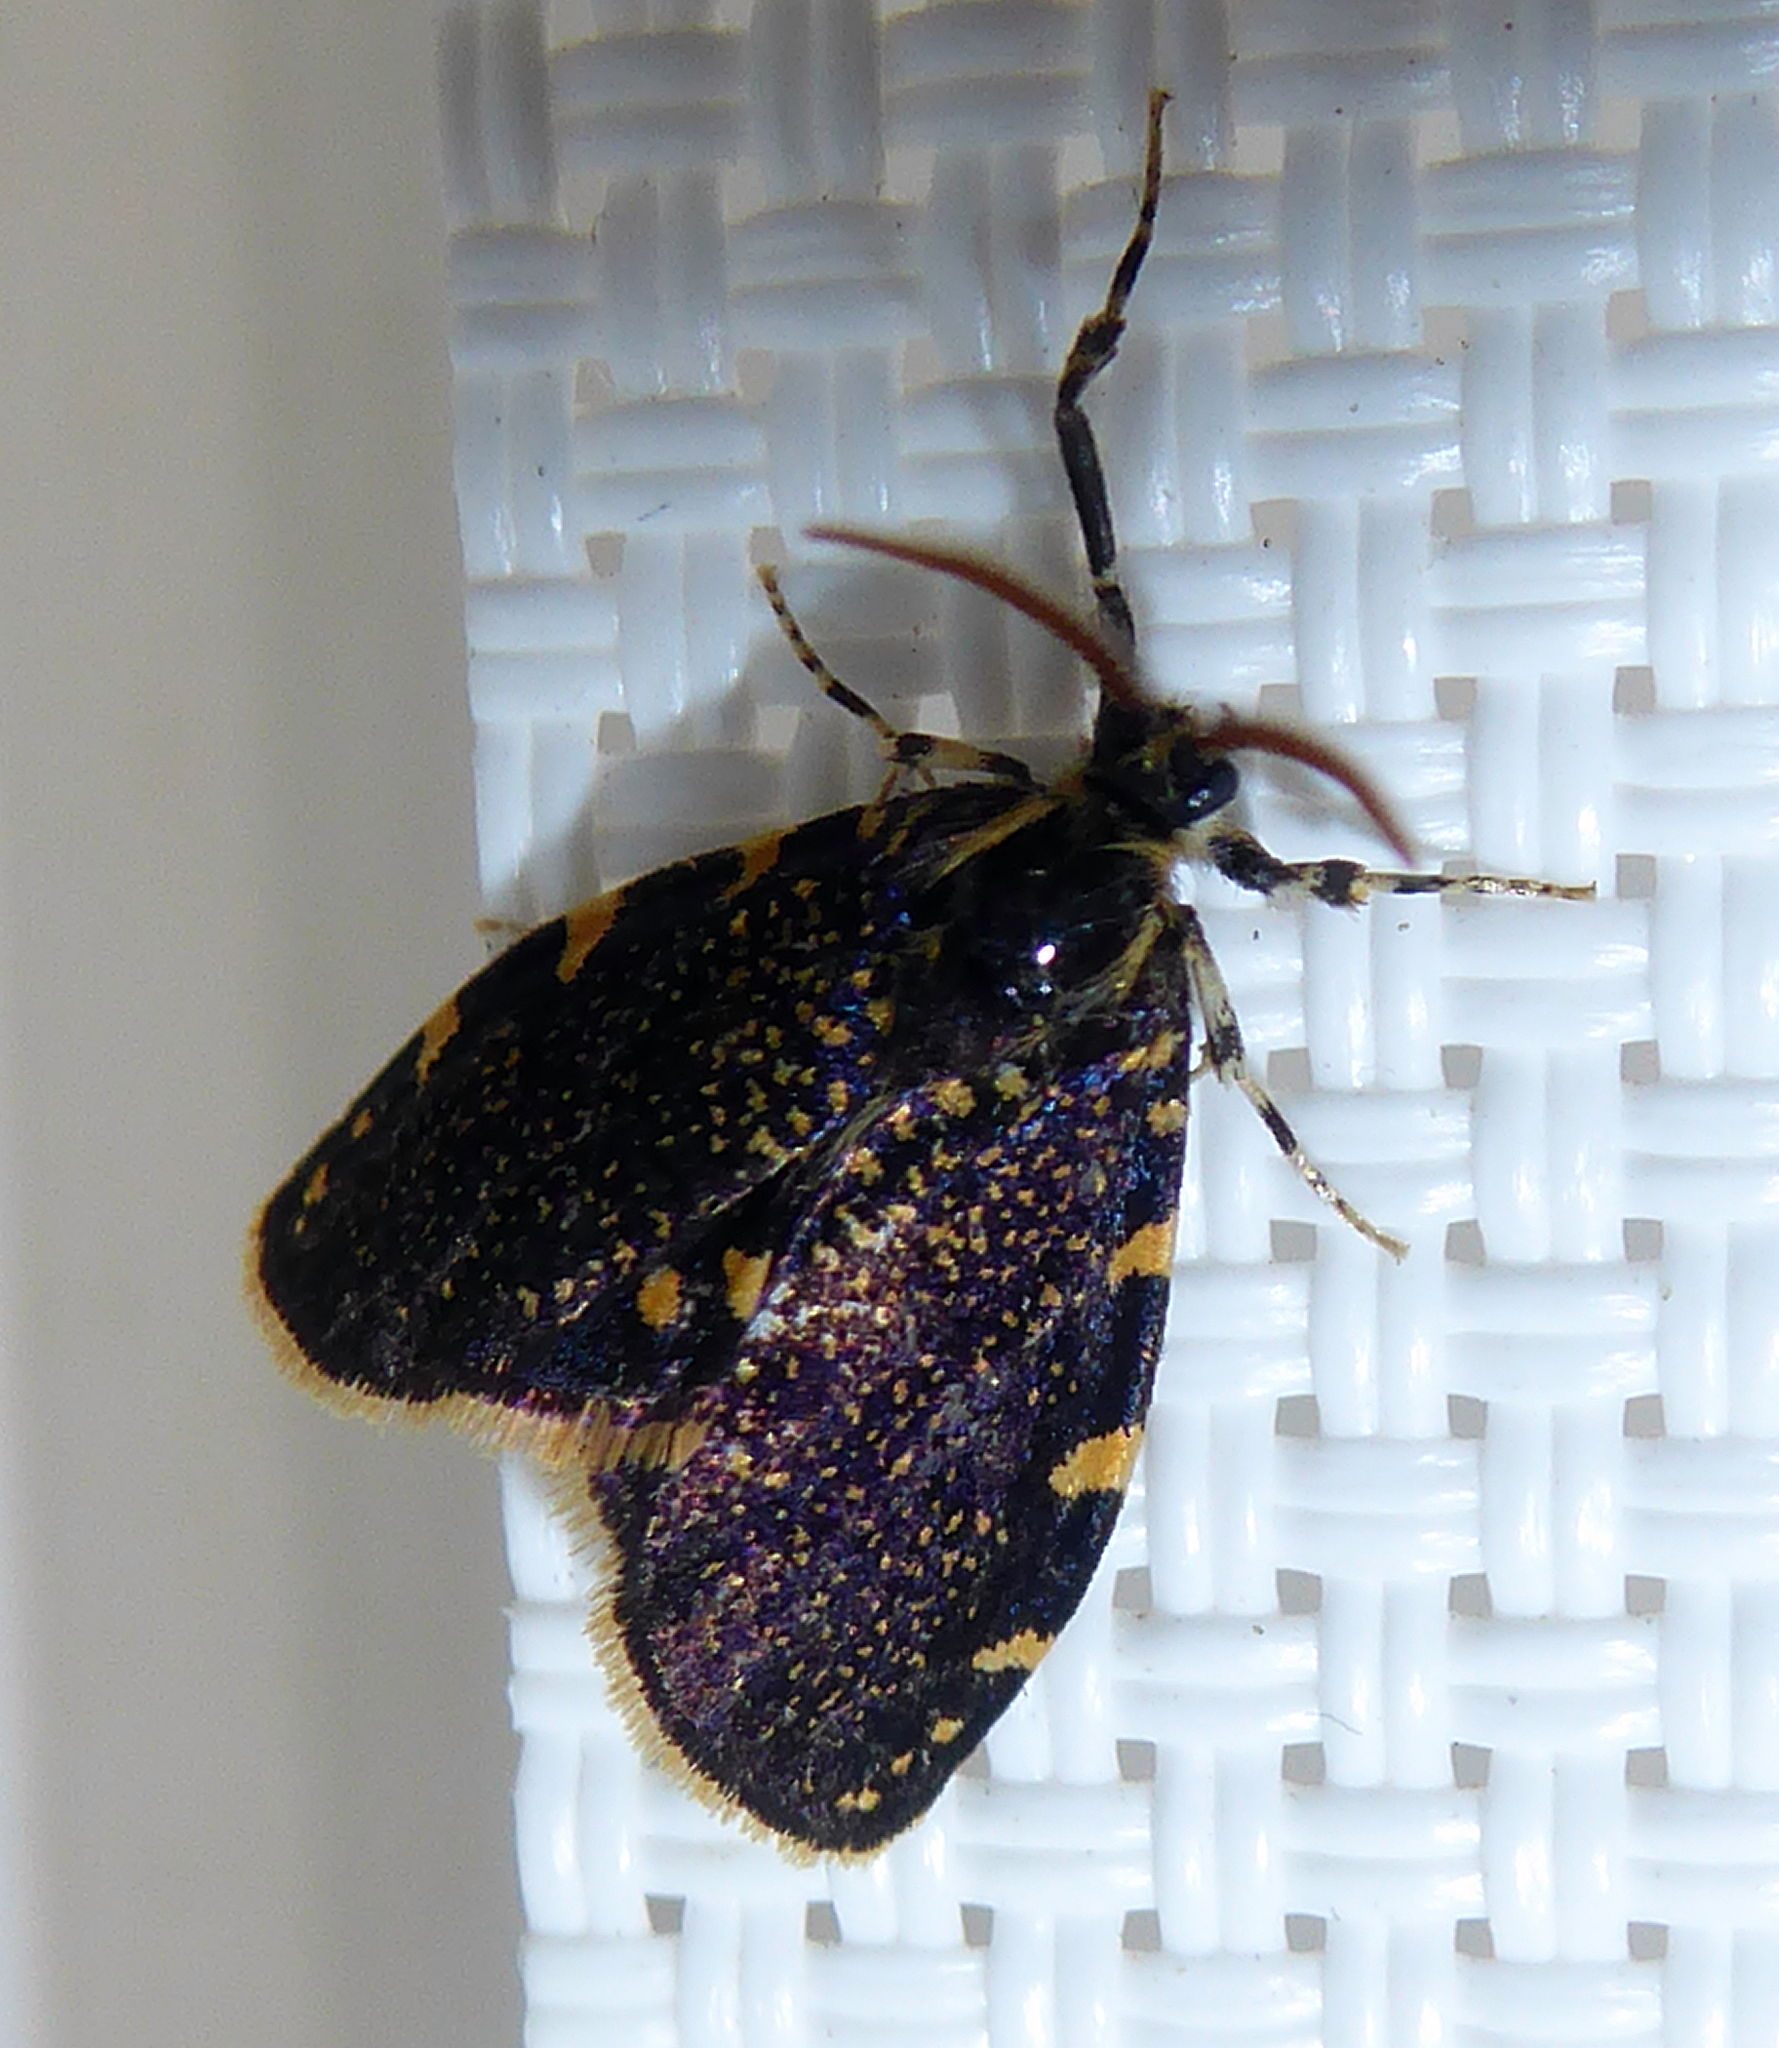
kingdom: Animalia
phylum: Arthropoda
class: Insecta
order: Lepidoptera
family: Psychidae
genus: Cebysa
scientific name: Cebysa leucotelus
